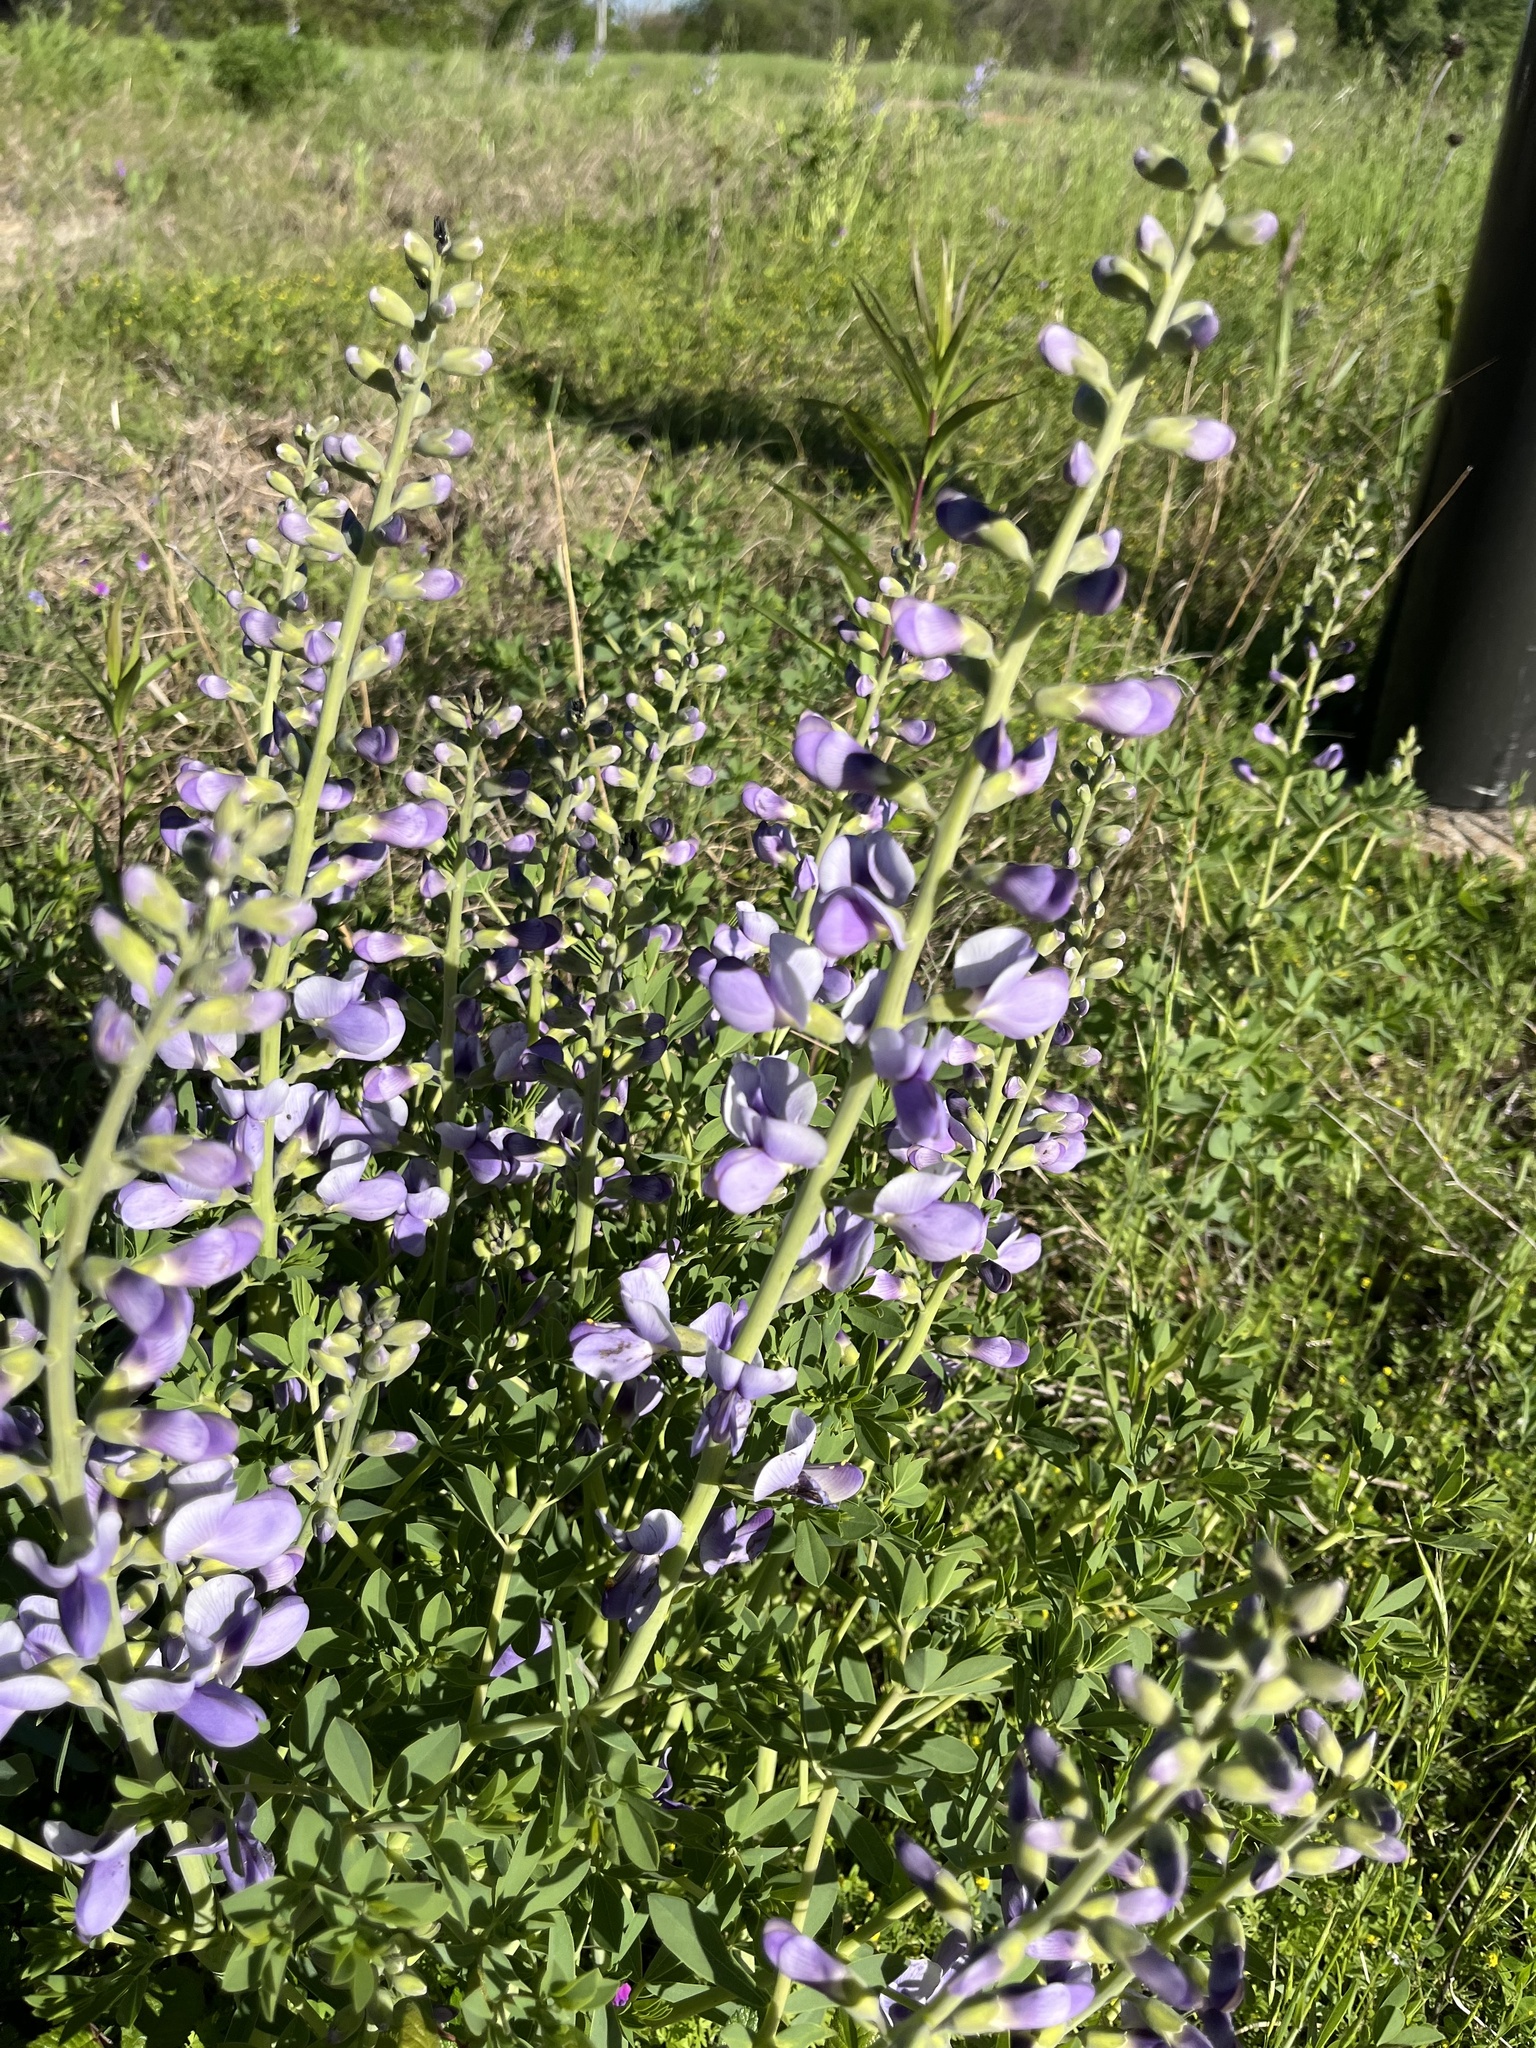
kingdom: Plantae
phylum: Tracheophyta
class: Magnoliopsida
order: Fabales
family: Fabaceae
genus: Baptisia
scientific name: Baptisia australis
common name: Blue false indigo
